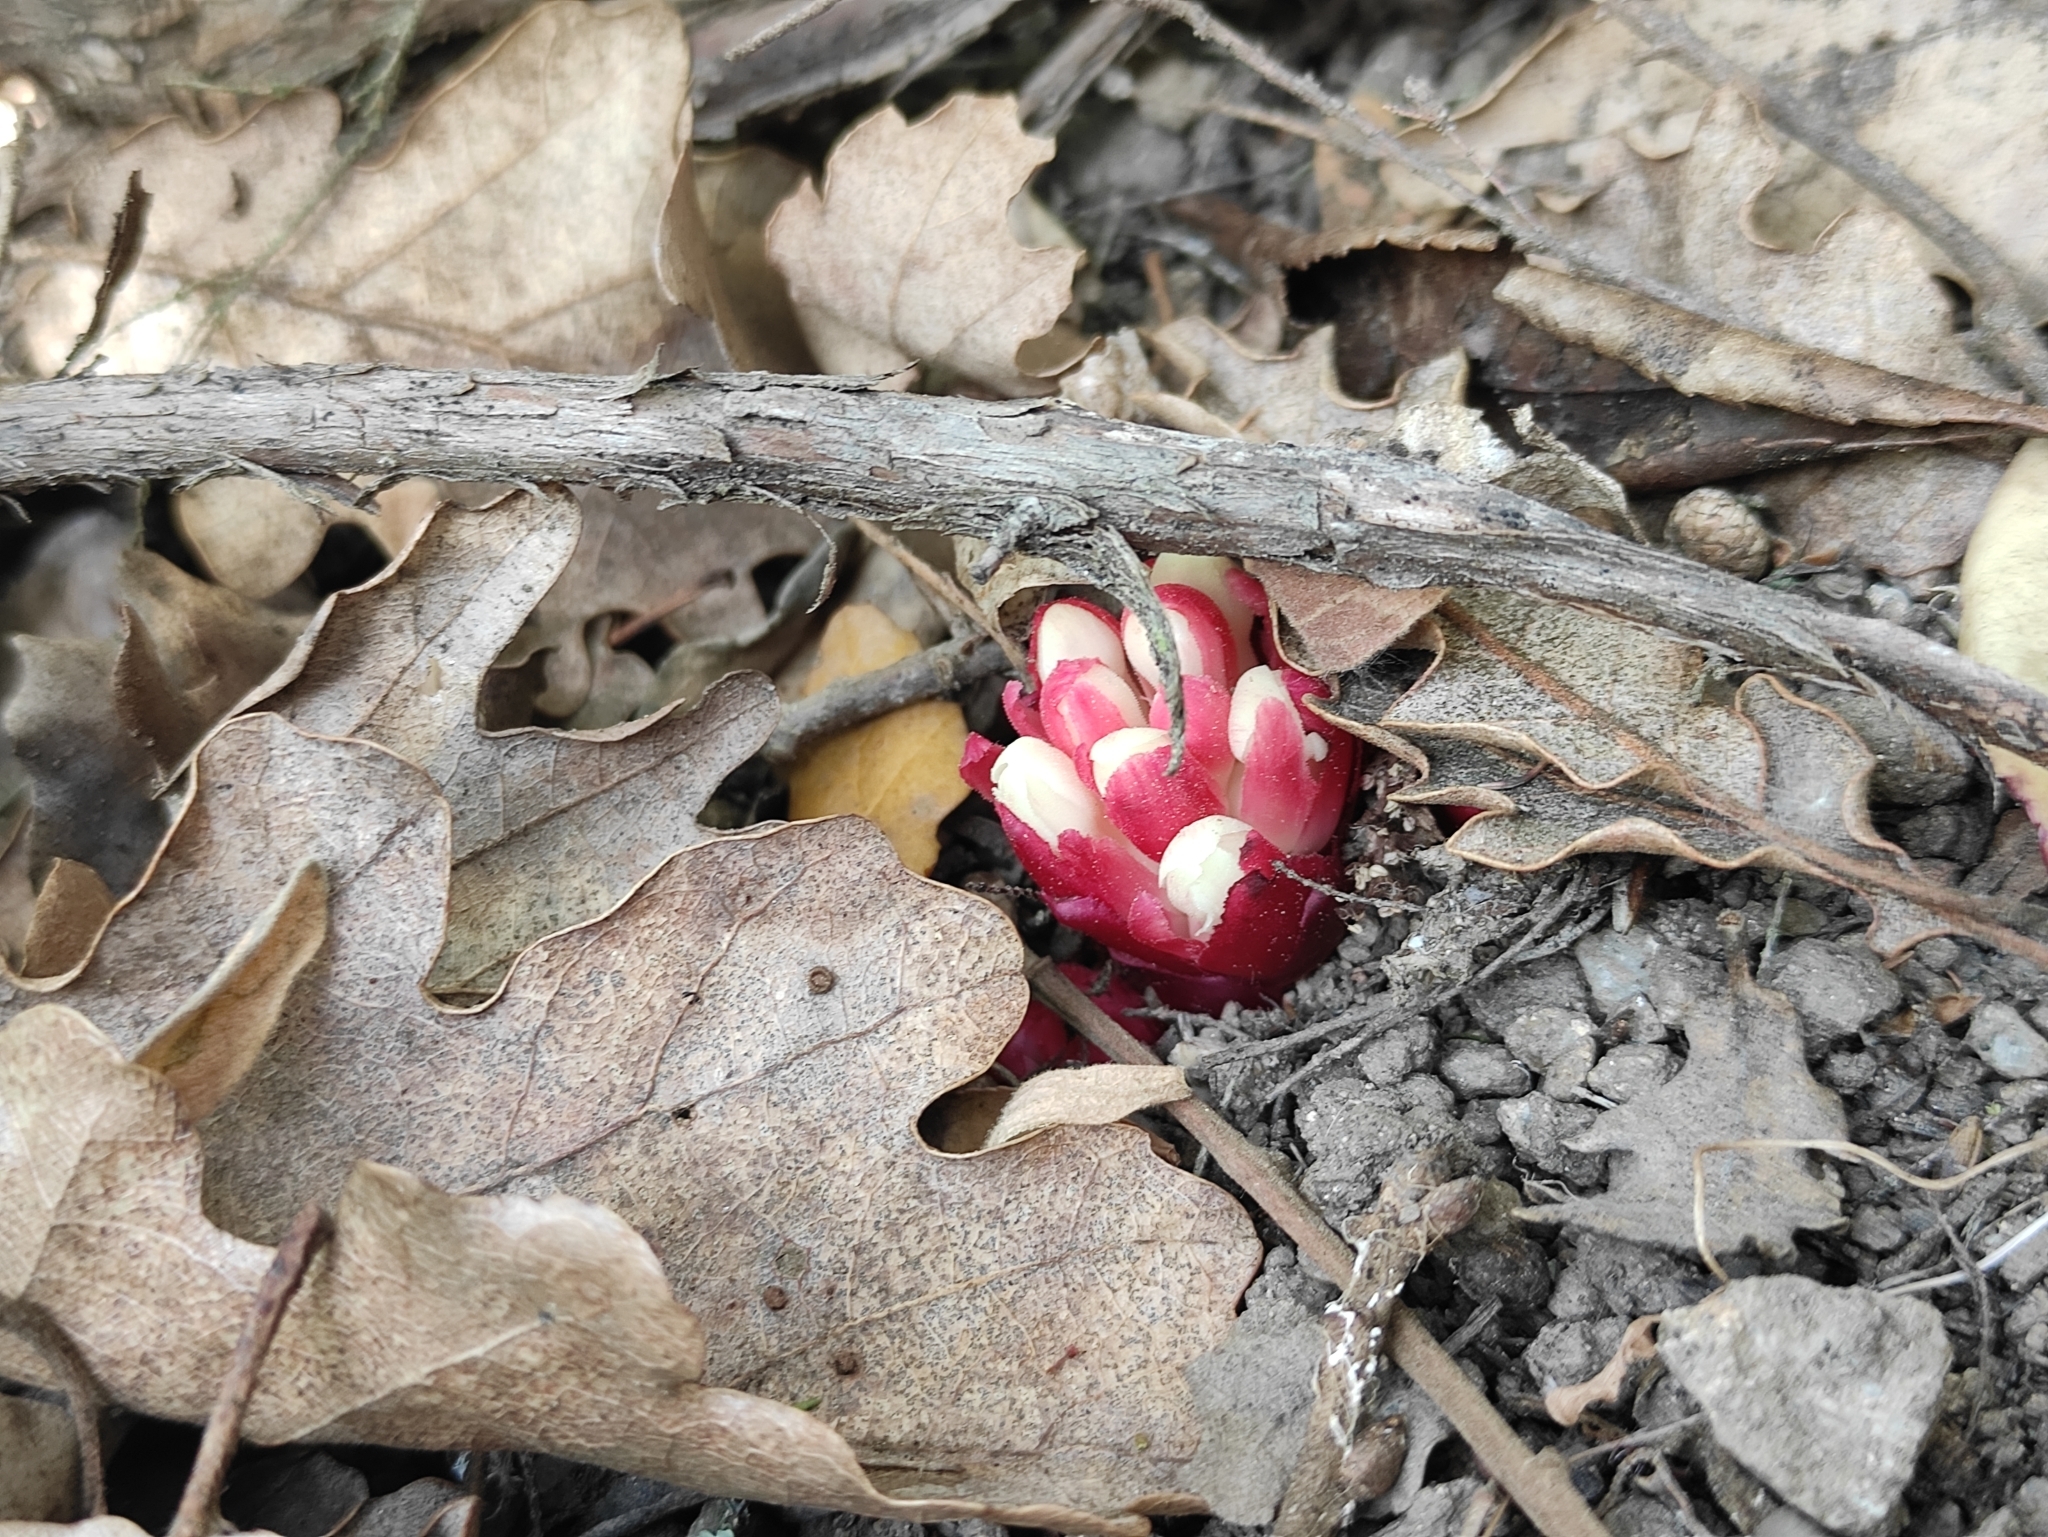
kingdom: Plantae
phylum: Tracheophyta
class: Magnoliopsida
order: Malvales
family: Cytinaceae
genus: Cytinus
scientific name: Cytinus ruber
